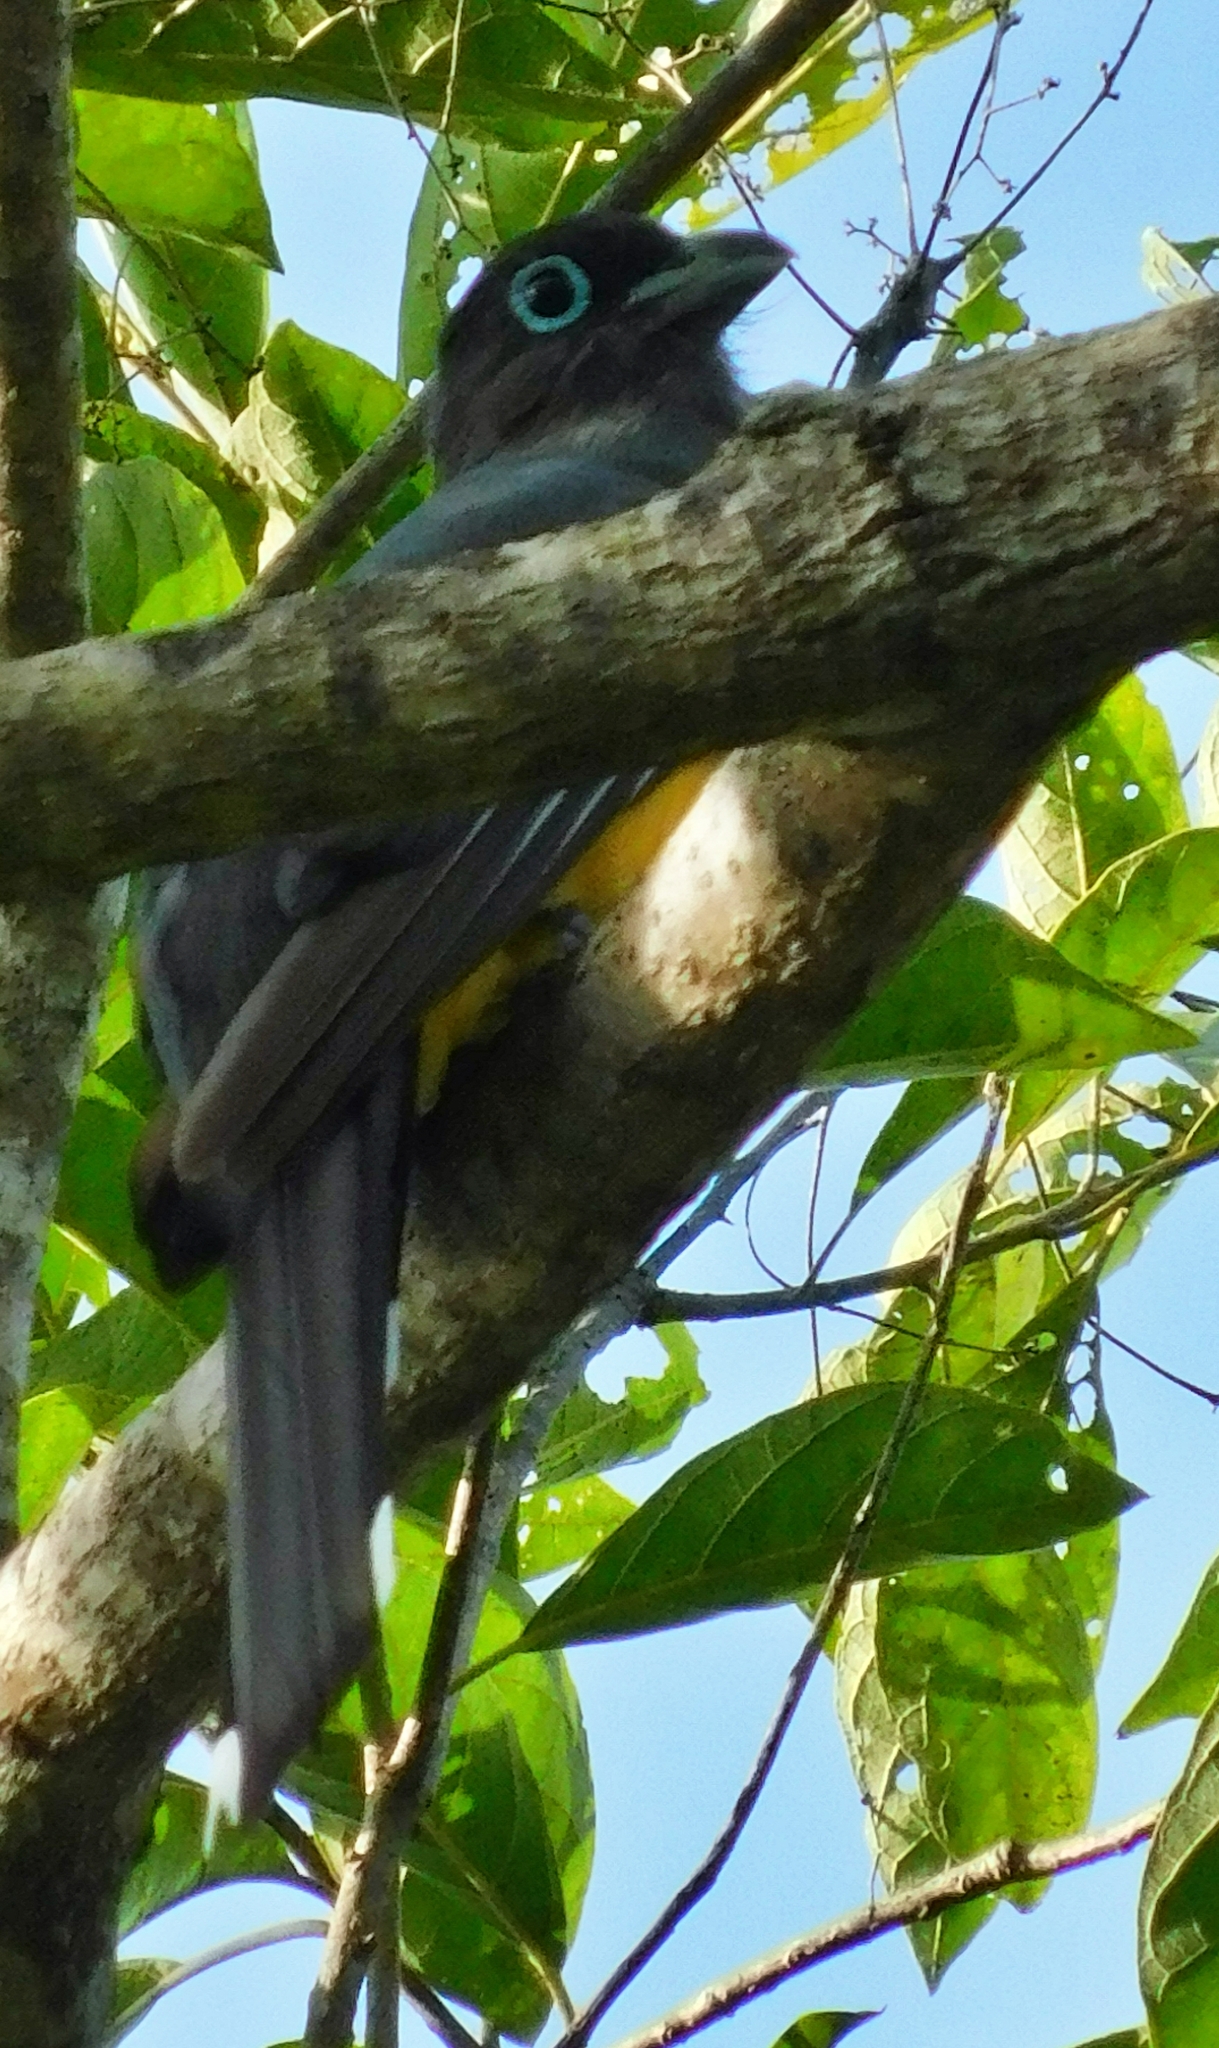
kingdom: Animalia
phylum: Chordata
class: Aves
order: Trogoniformes
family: Trogonidae
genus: Trogon
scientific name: Trogon melanocephalus
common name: Black-headed trogon
